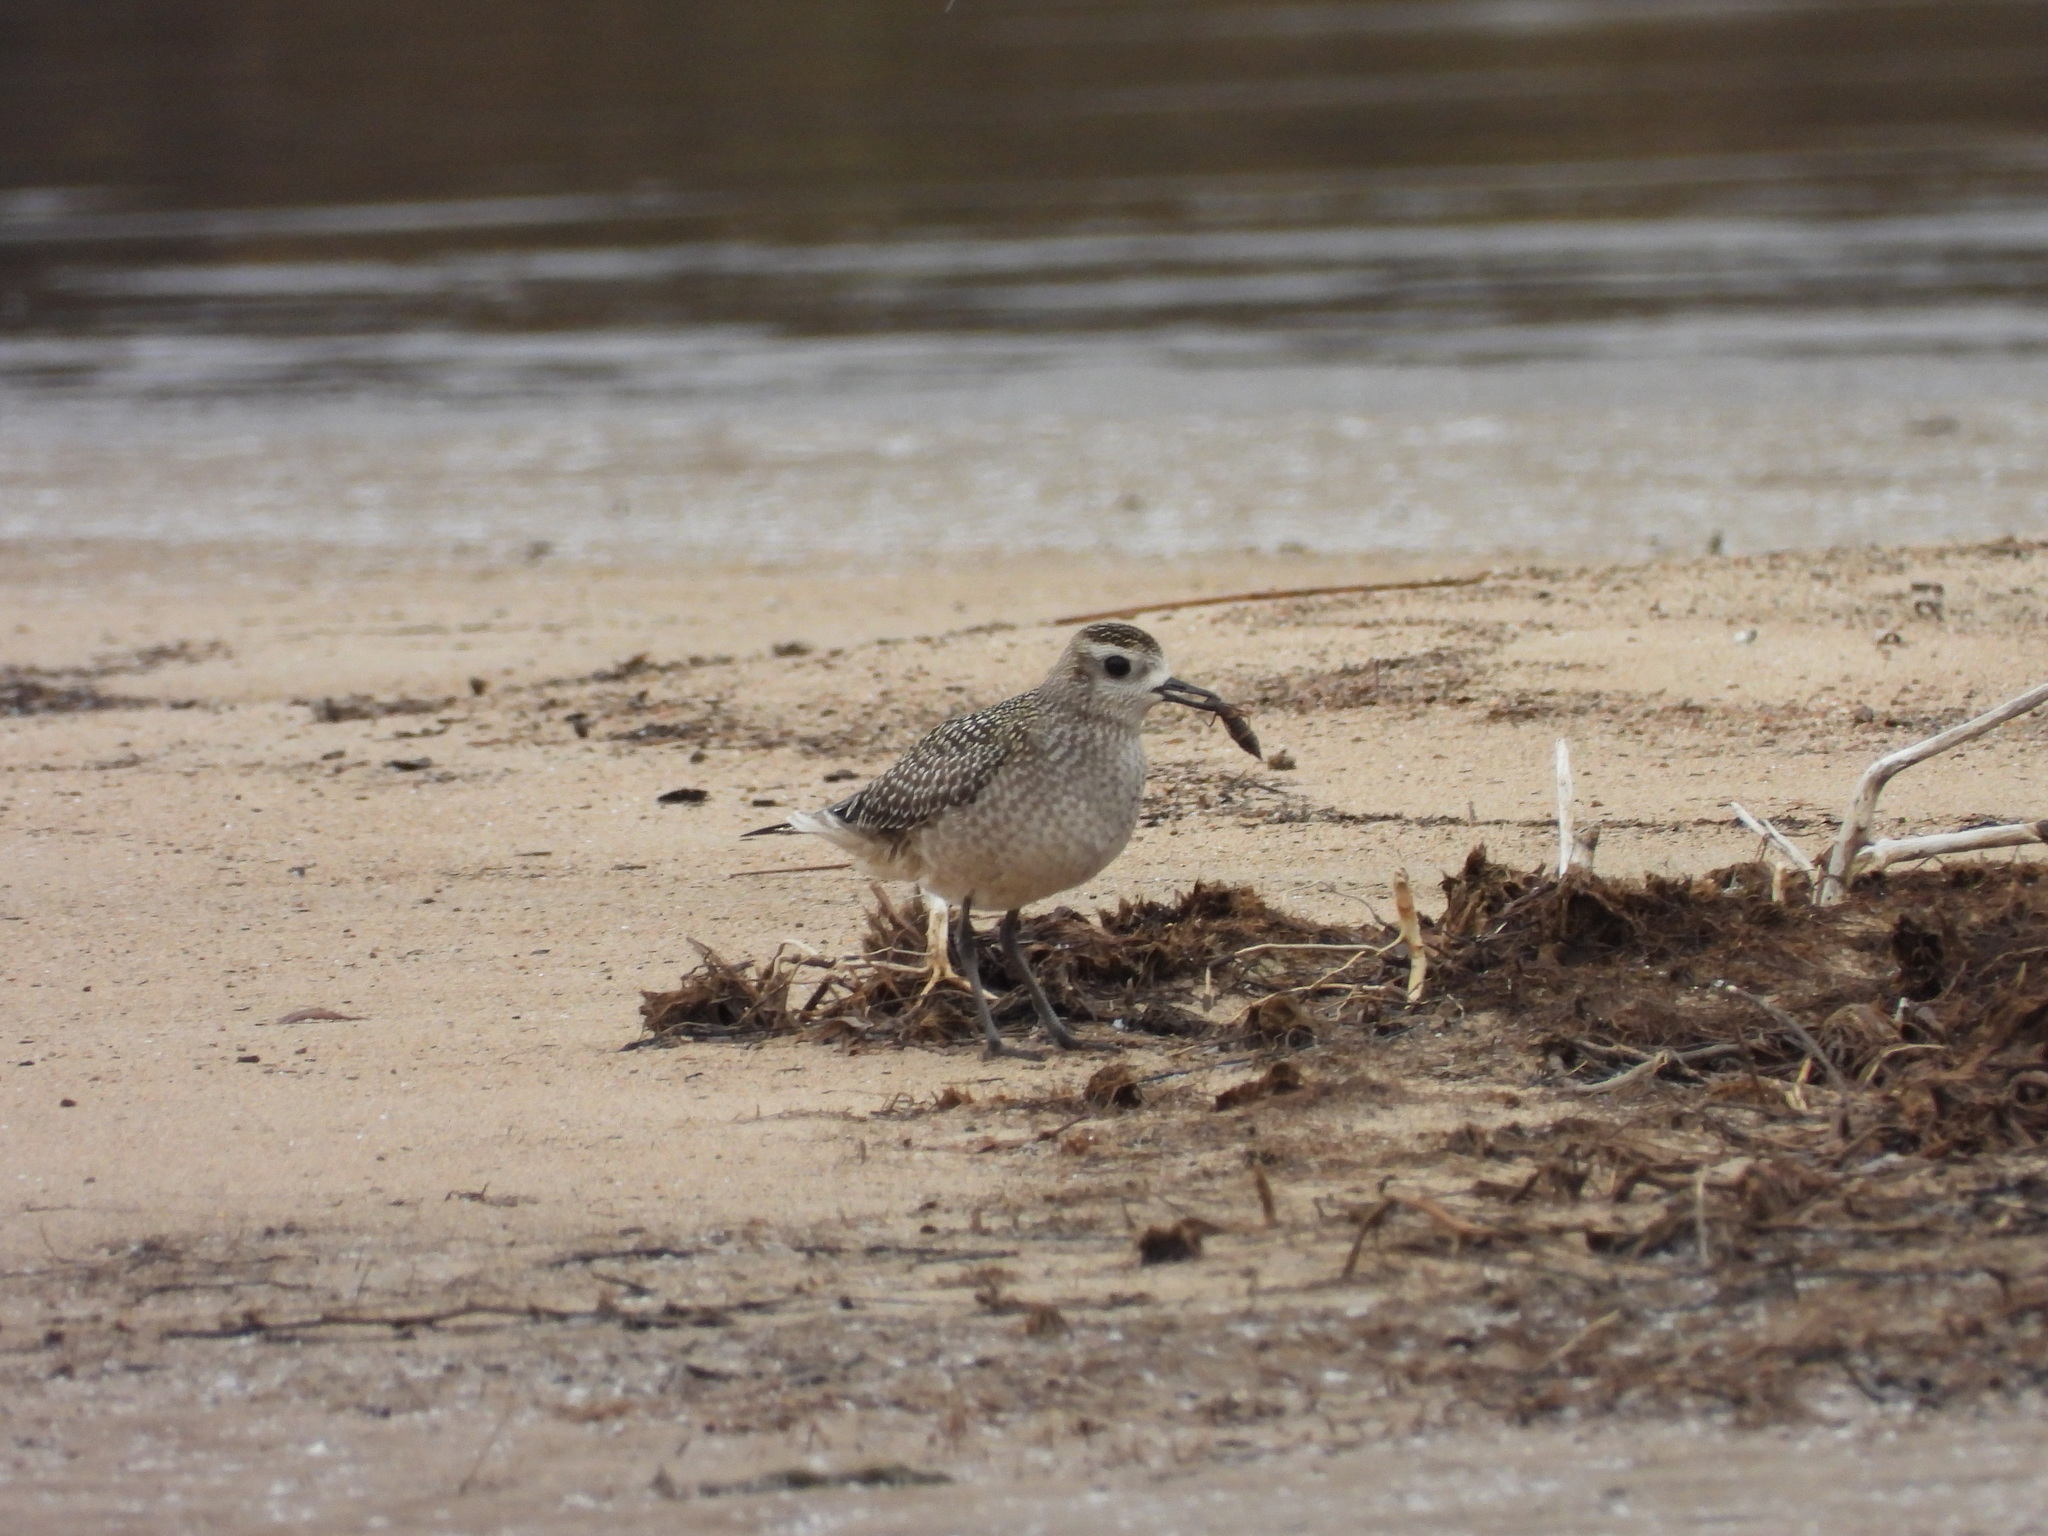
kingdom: Animalia
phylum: Chordata
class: Aves
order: Charadriiformes
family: Charadriidae
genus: Pluvialis
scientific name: Pluvialis dominica
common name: American golden plover
